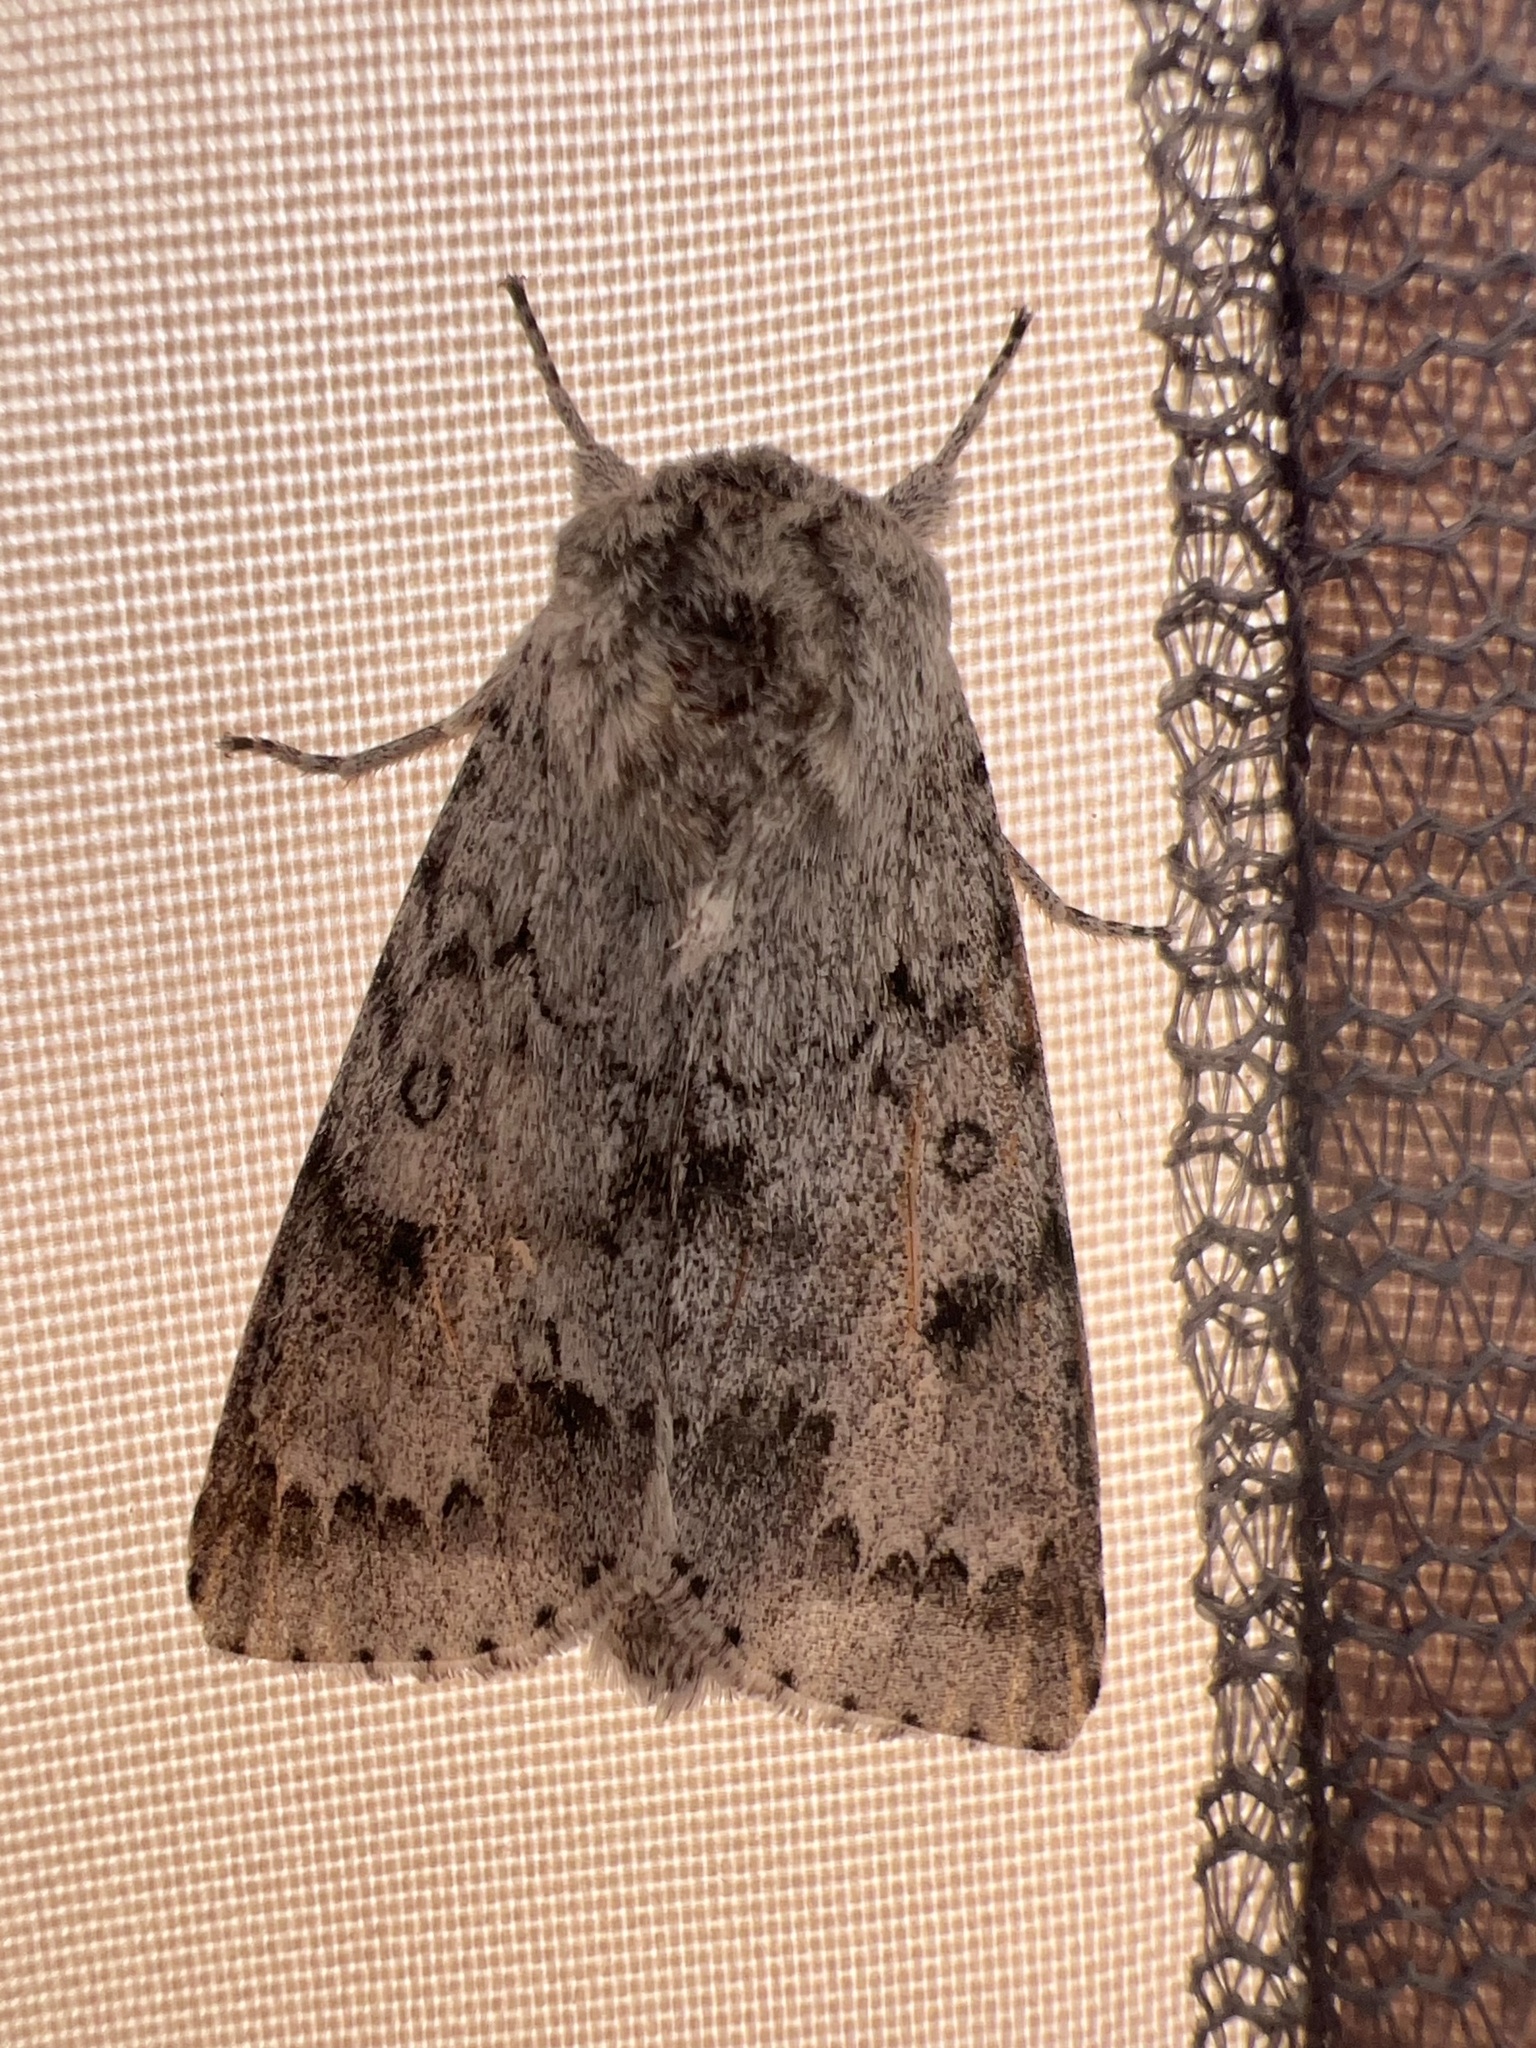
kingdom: Animalia
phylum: Arthropoda
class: Insecta
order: Lepidoptera
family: Noctuidae
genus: Acronicta
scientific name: Acronicta insita
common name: Large gray dagger
